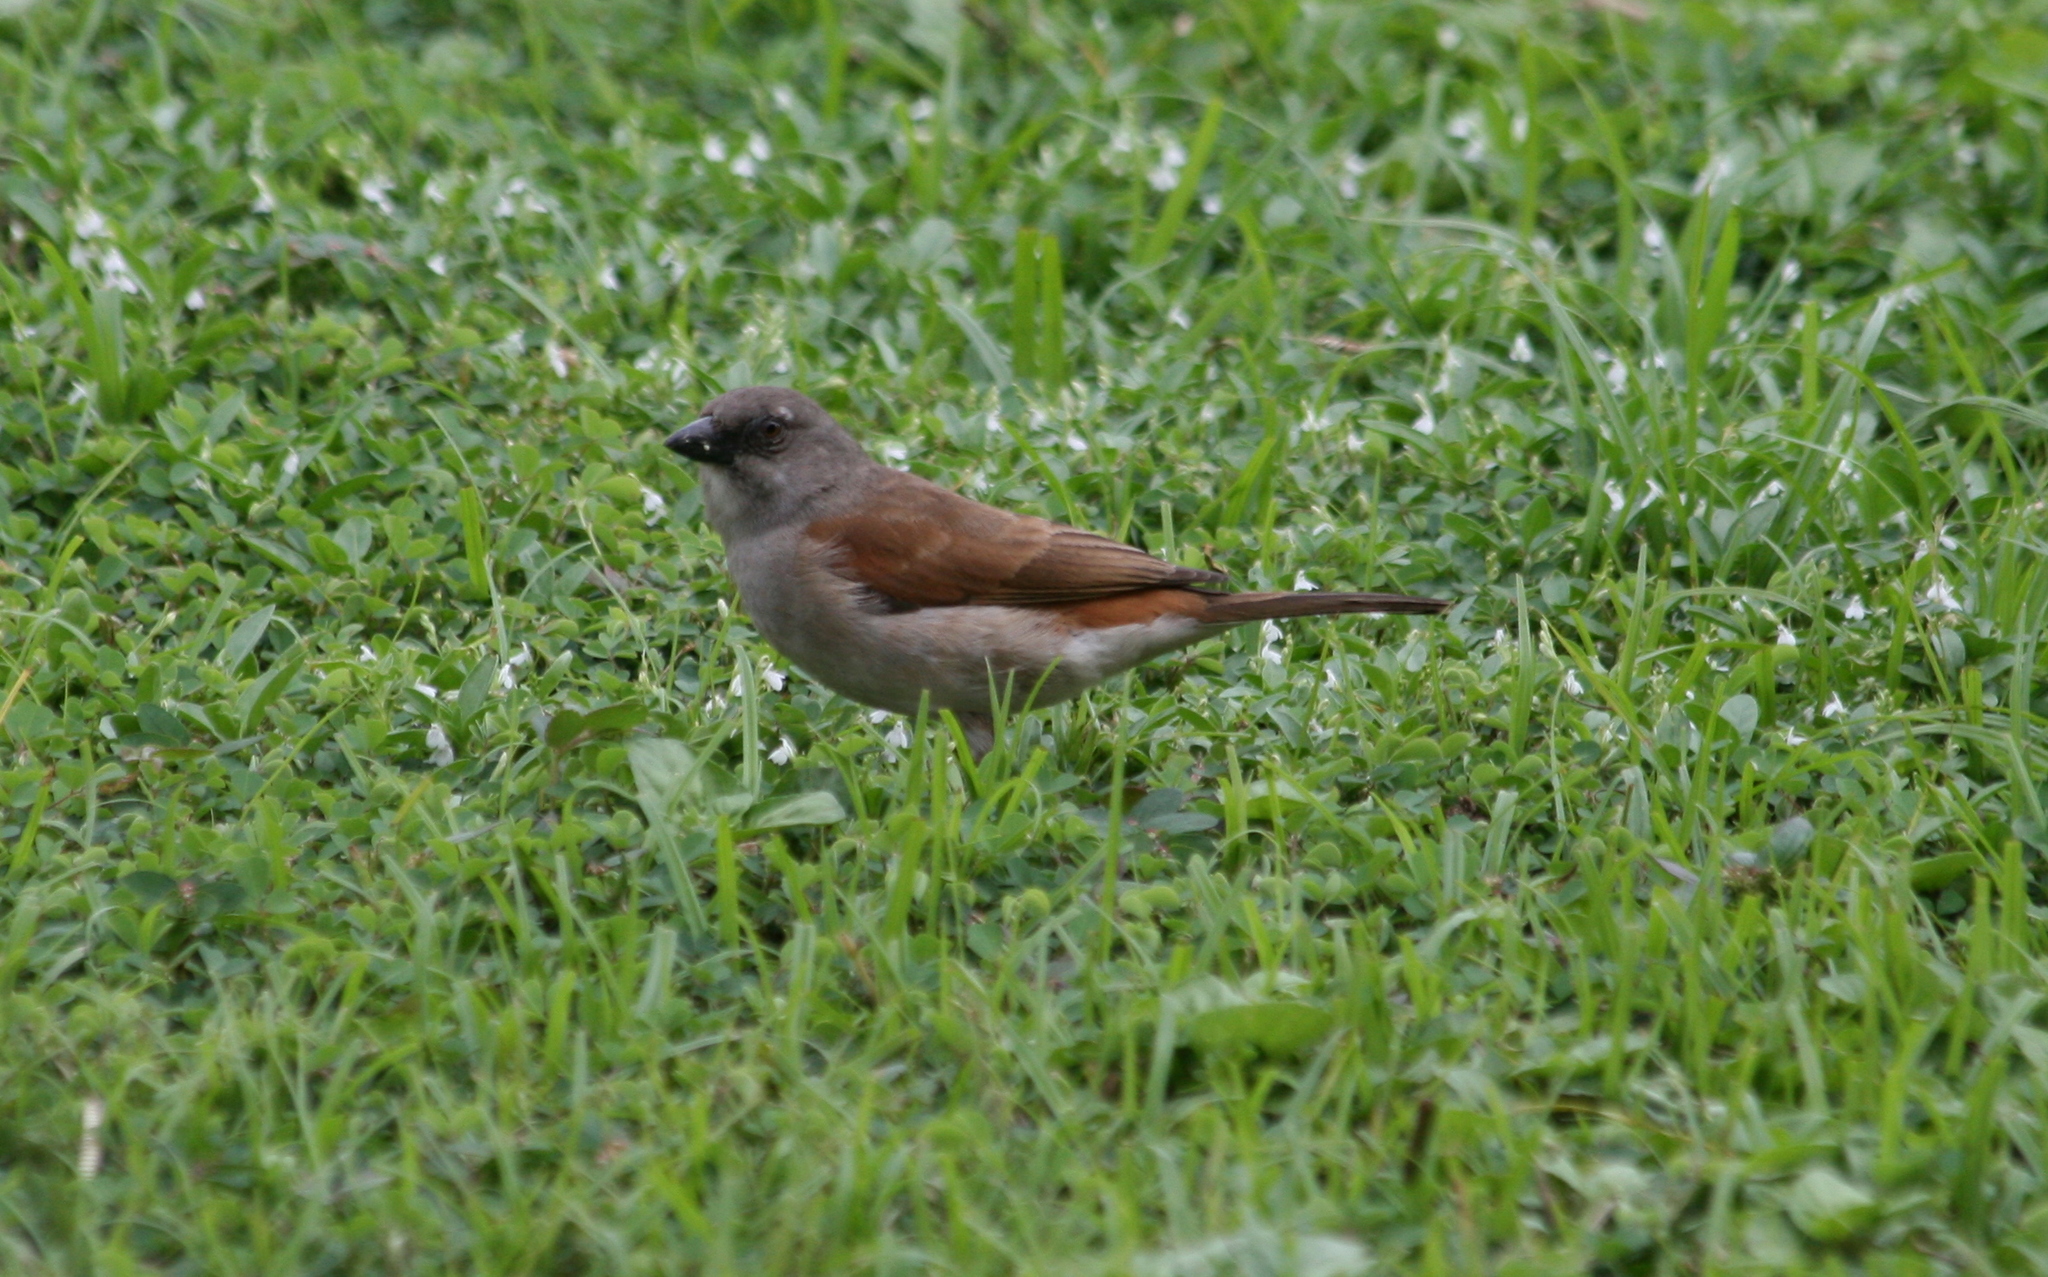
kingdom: Animalia
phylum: Chordata
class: Aves
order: Passeriformes
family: Passeridae
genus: Passer
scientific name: Passer griseus
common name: Northern grey-headed sparrow
